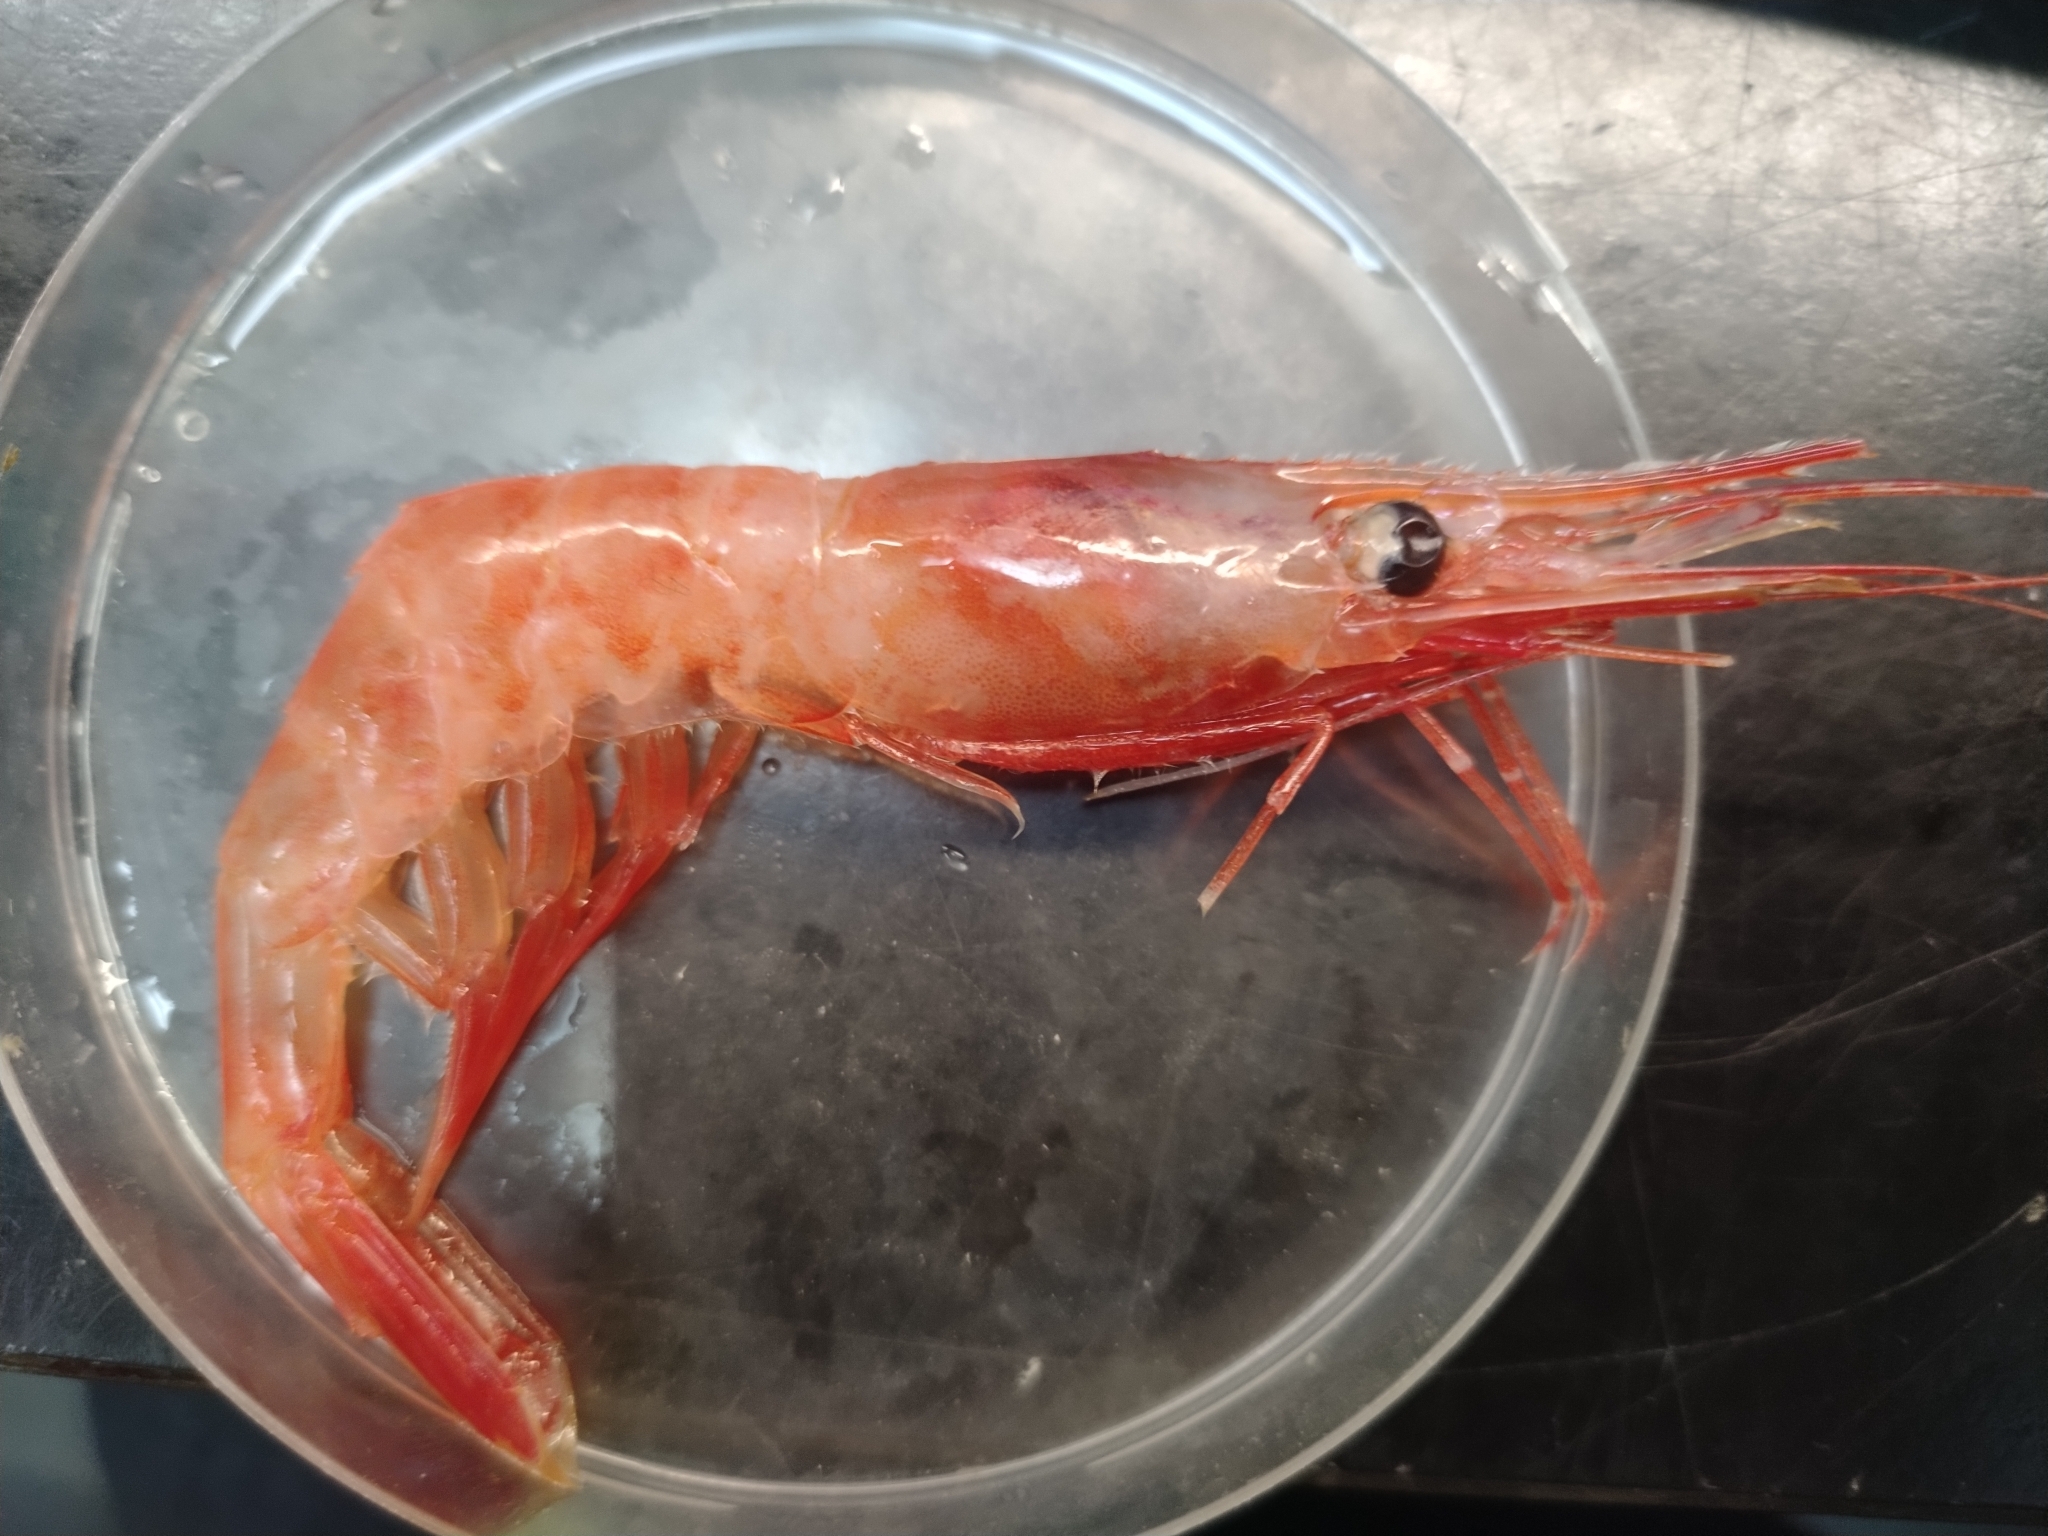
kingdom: Animalia
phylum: Arthropoda
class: Malacostraca
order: Decapoda
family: Pandalidae
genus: Pandalus
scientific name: Pandalus borealis
